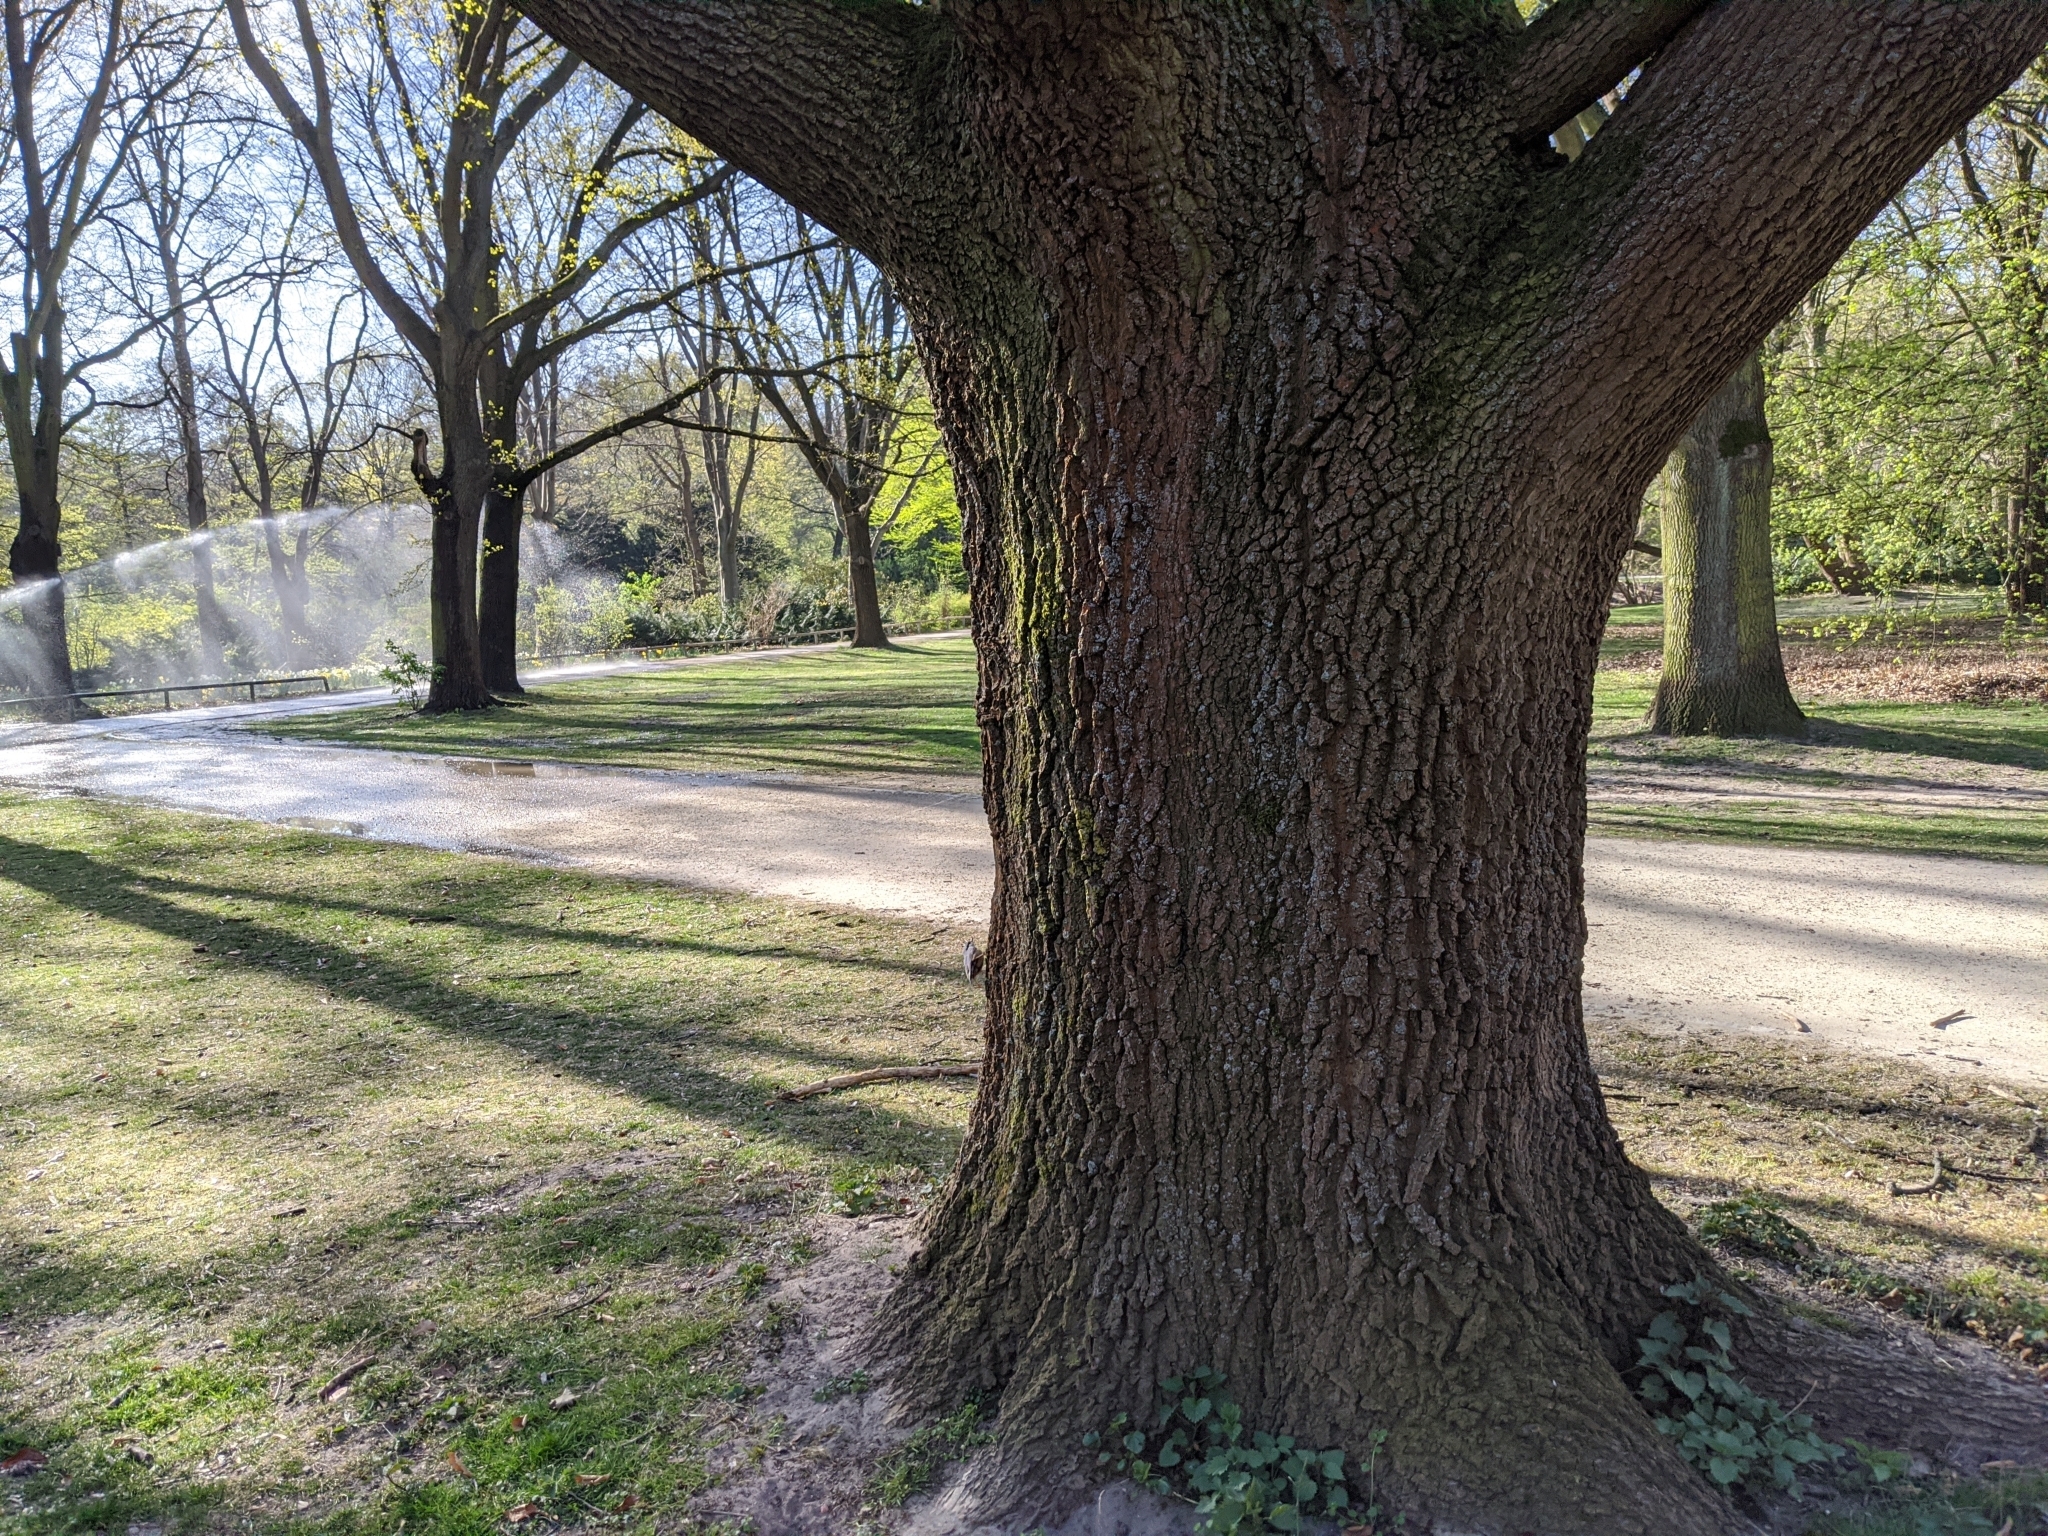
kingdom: Animalia
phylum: Chordata
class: Aves
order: Passeriformes
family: Sittidae
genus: Sitta
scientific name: Sitta europaea
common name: Eurasian nuthatch
